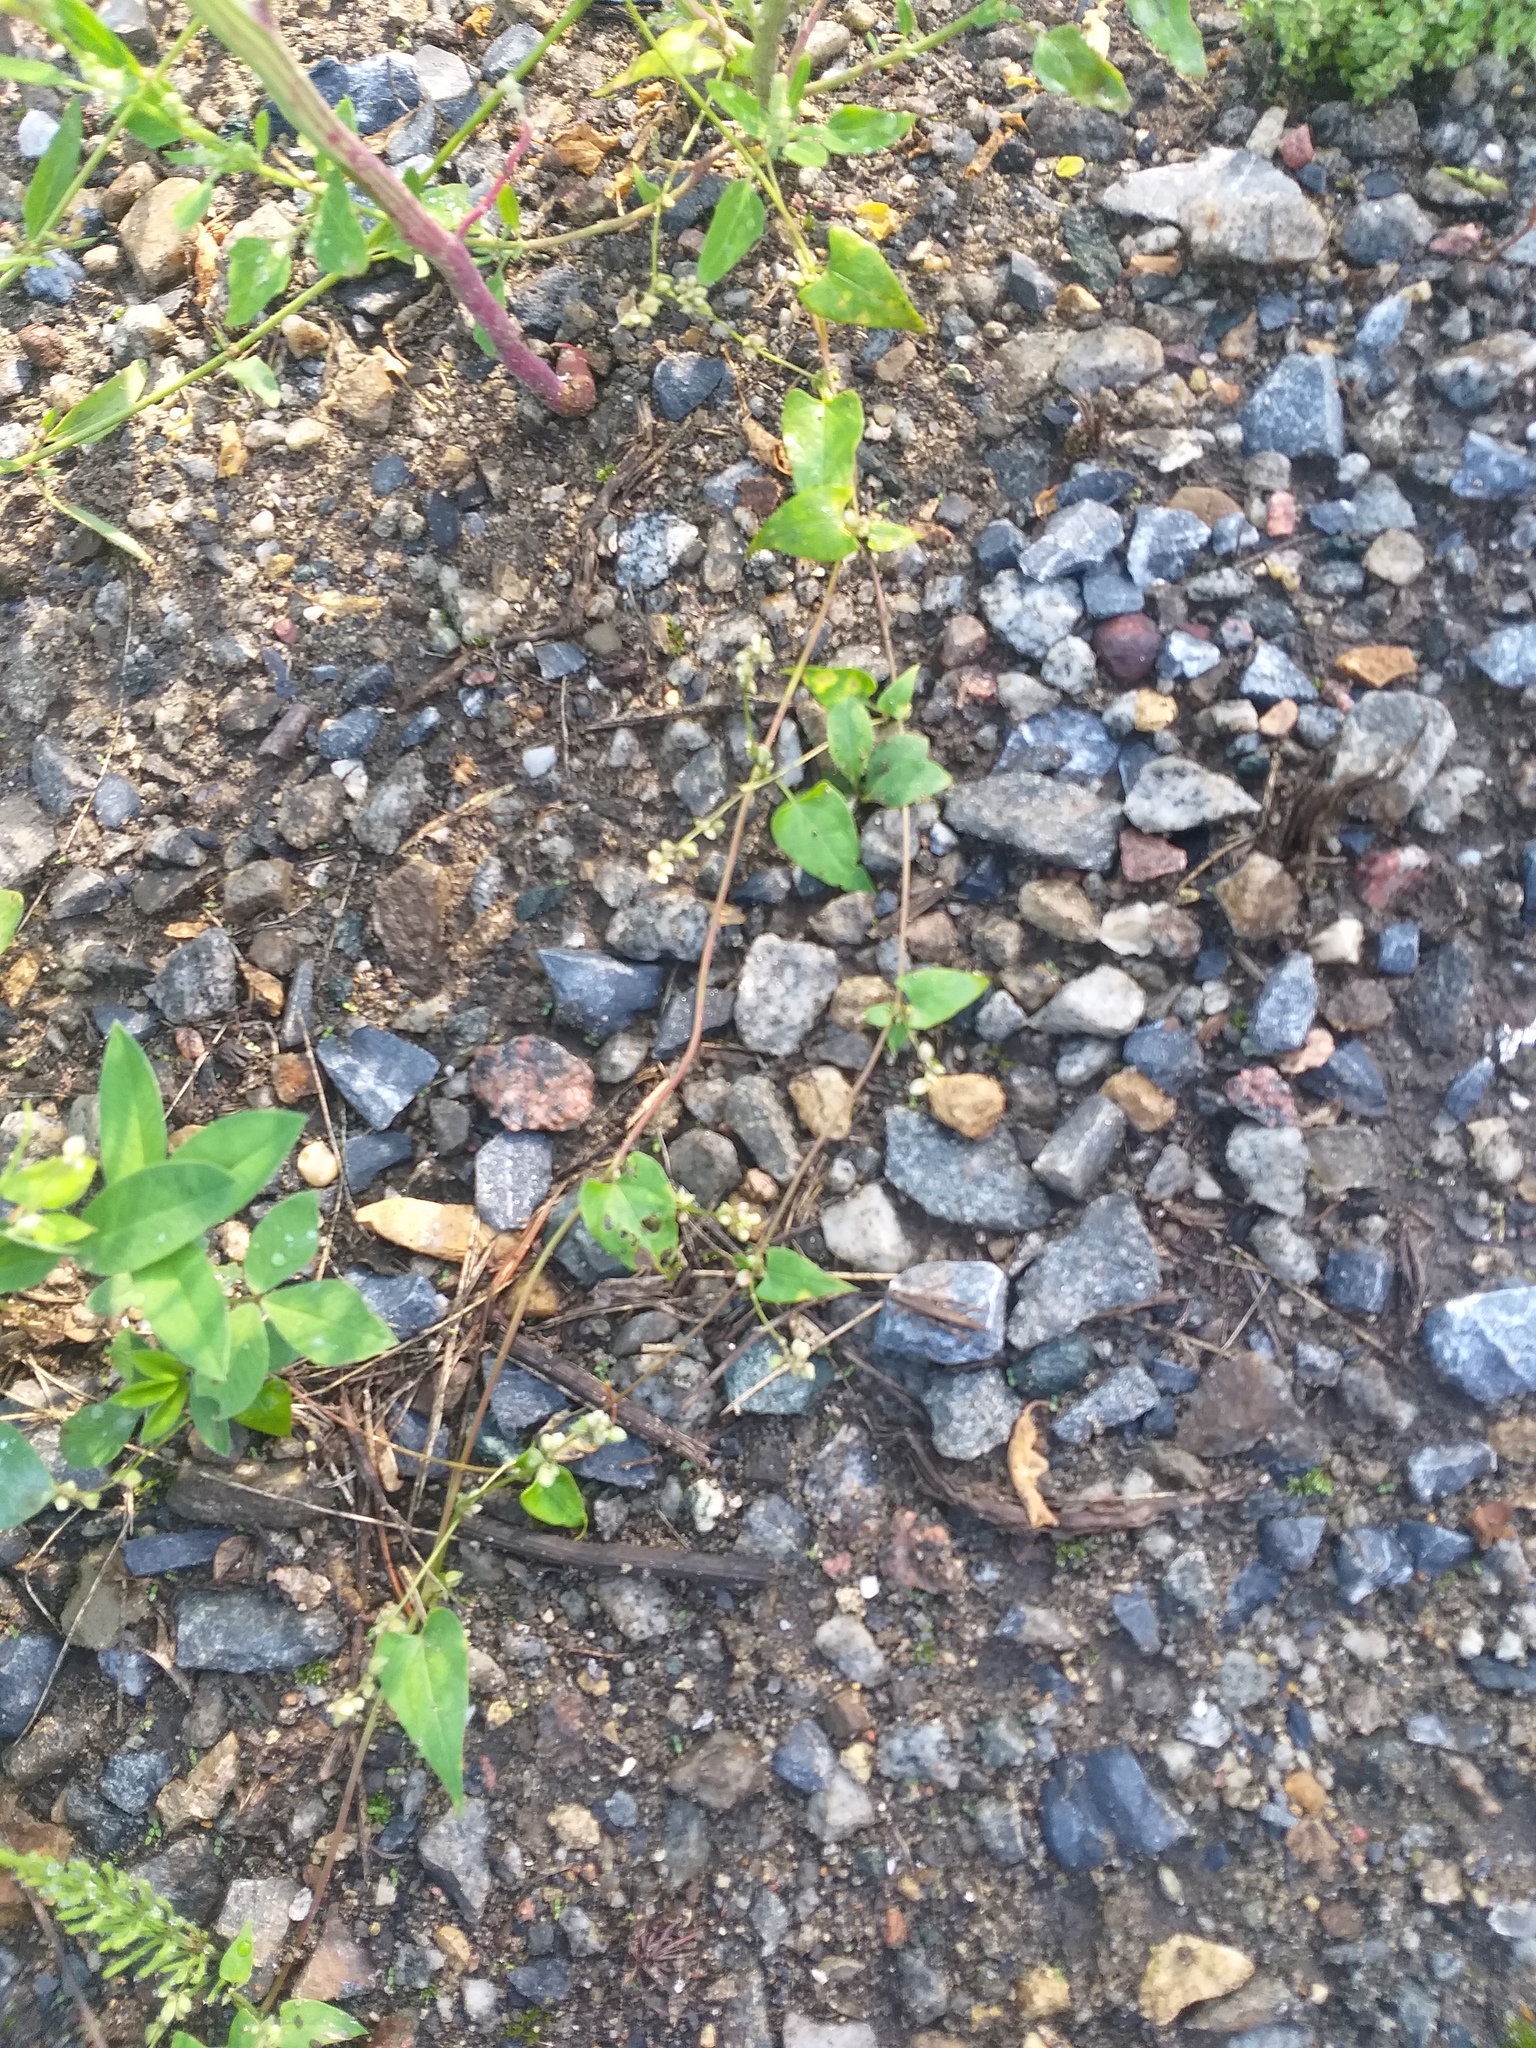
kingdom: Plantae
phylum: Tracheophyta
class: Magnoliopsida
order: Caryophyllales
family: Polygonaceae
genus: Fallopia
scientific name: Fallopia convolvulus
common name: Black bindweed
